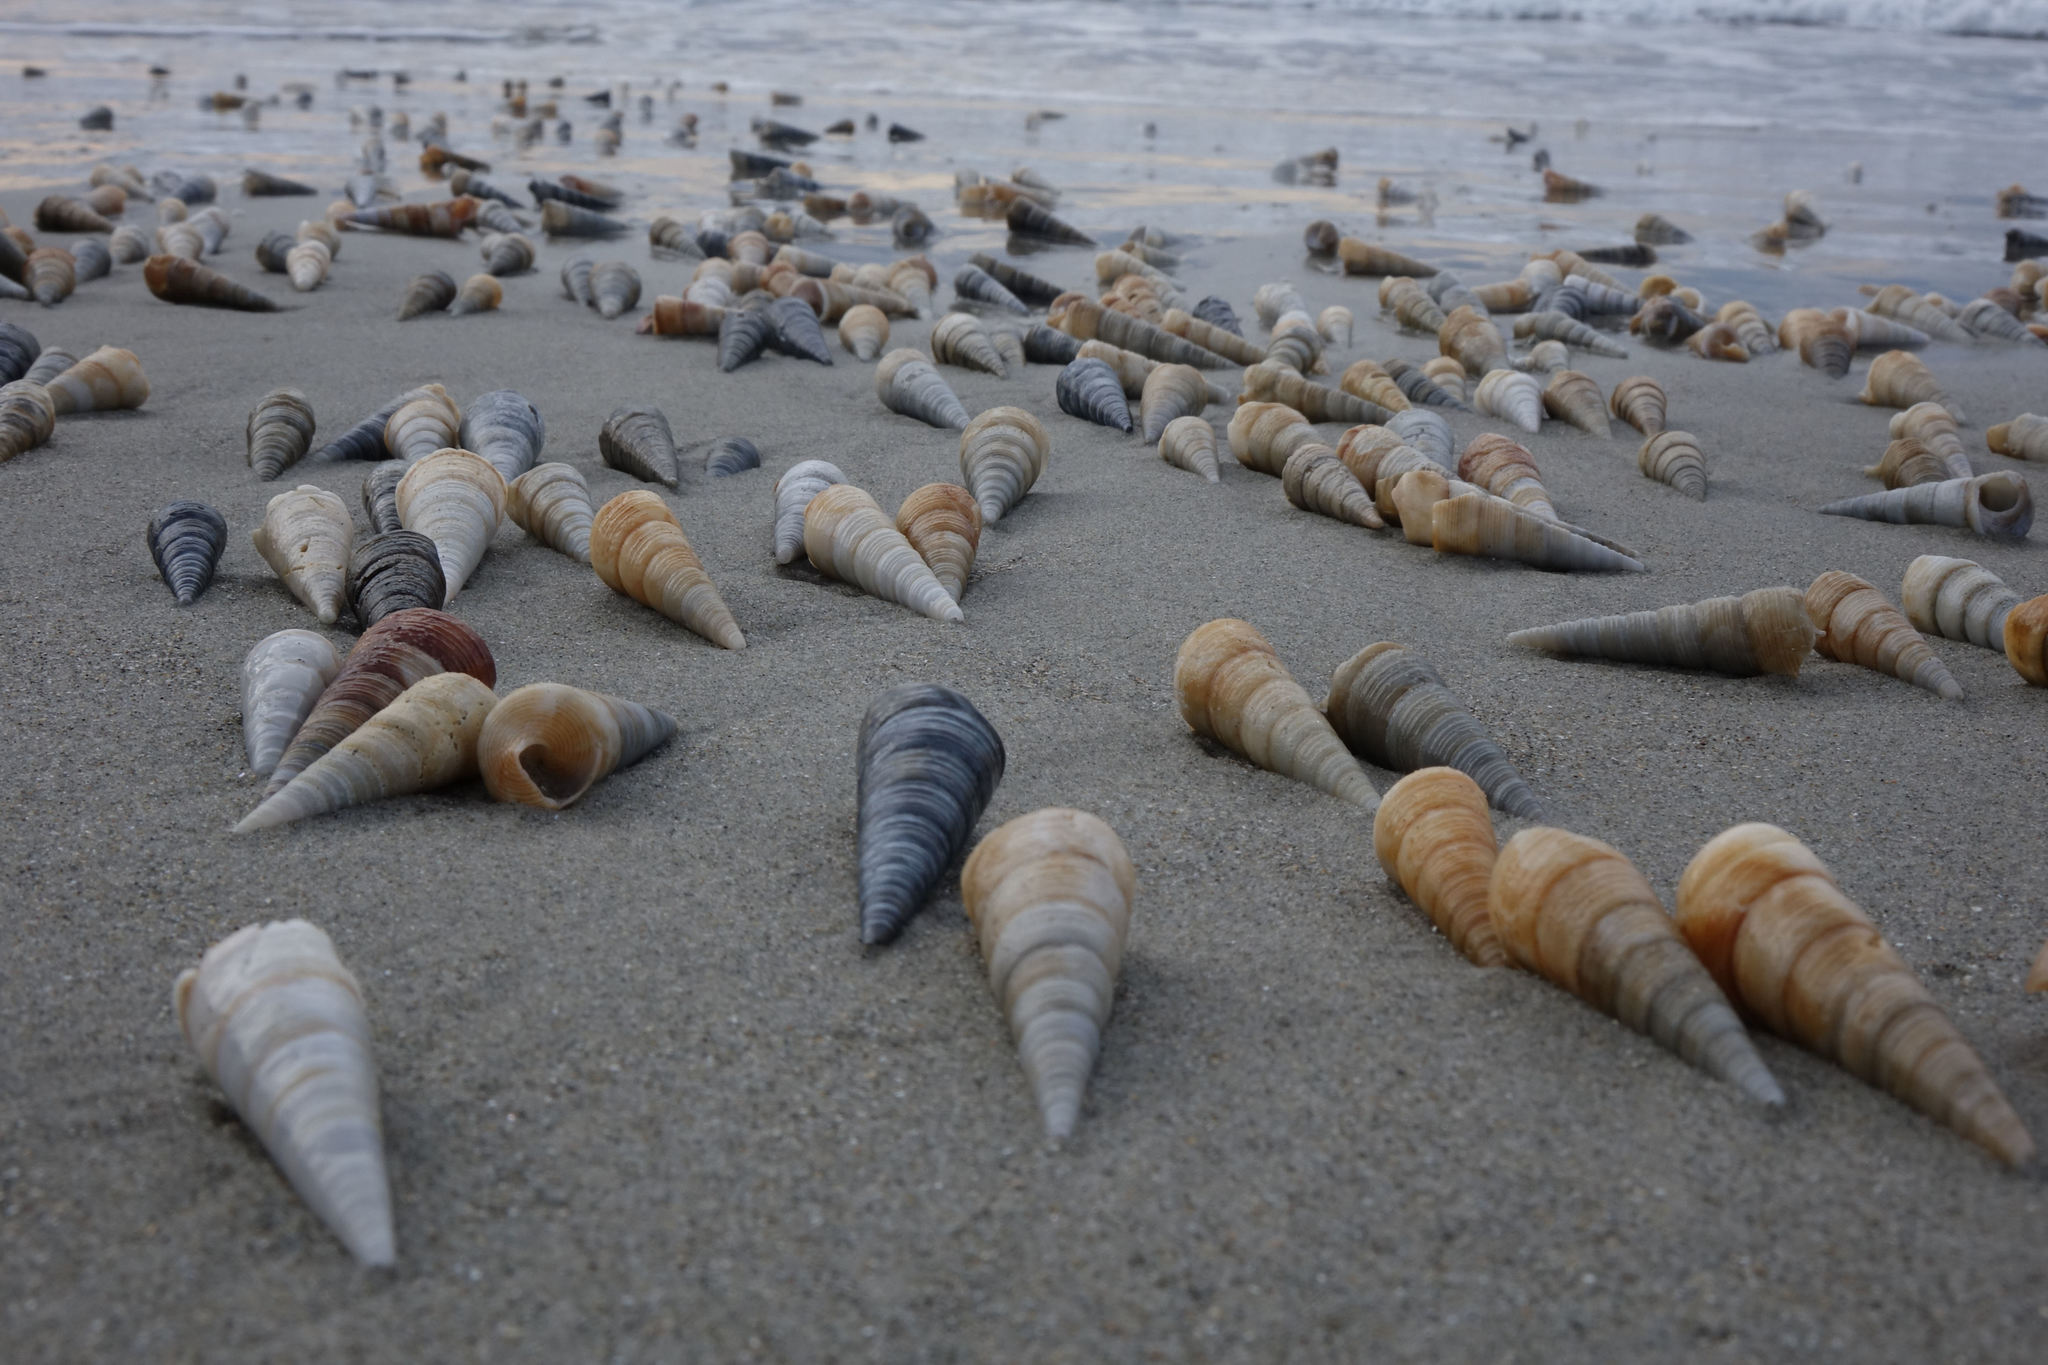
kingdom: Animalia
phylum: Mollusca
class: Gastropoda
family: Turritellidae
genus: Maoricolpus
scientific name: Maoricolpus roseus
